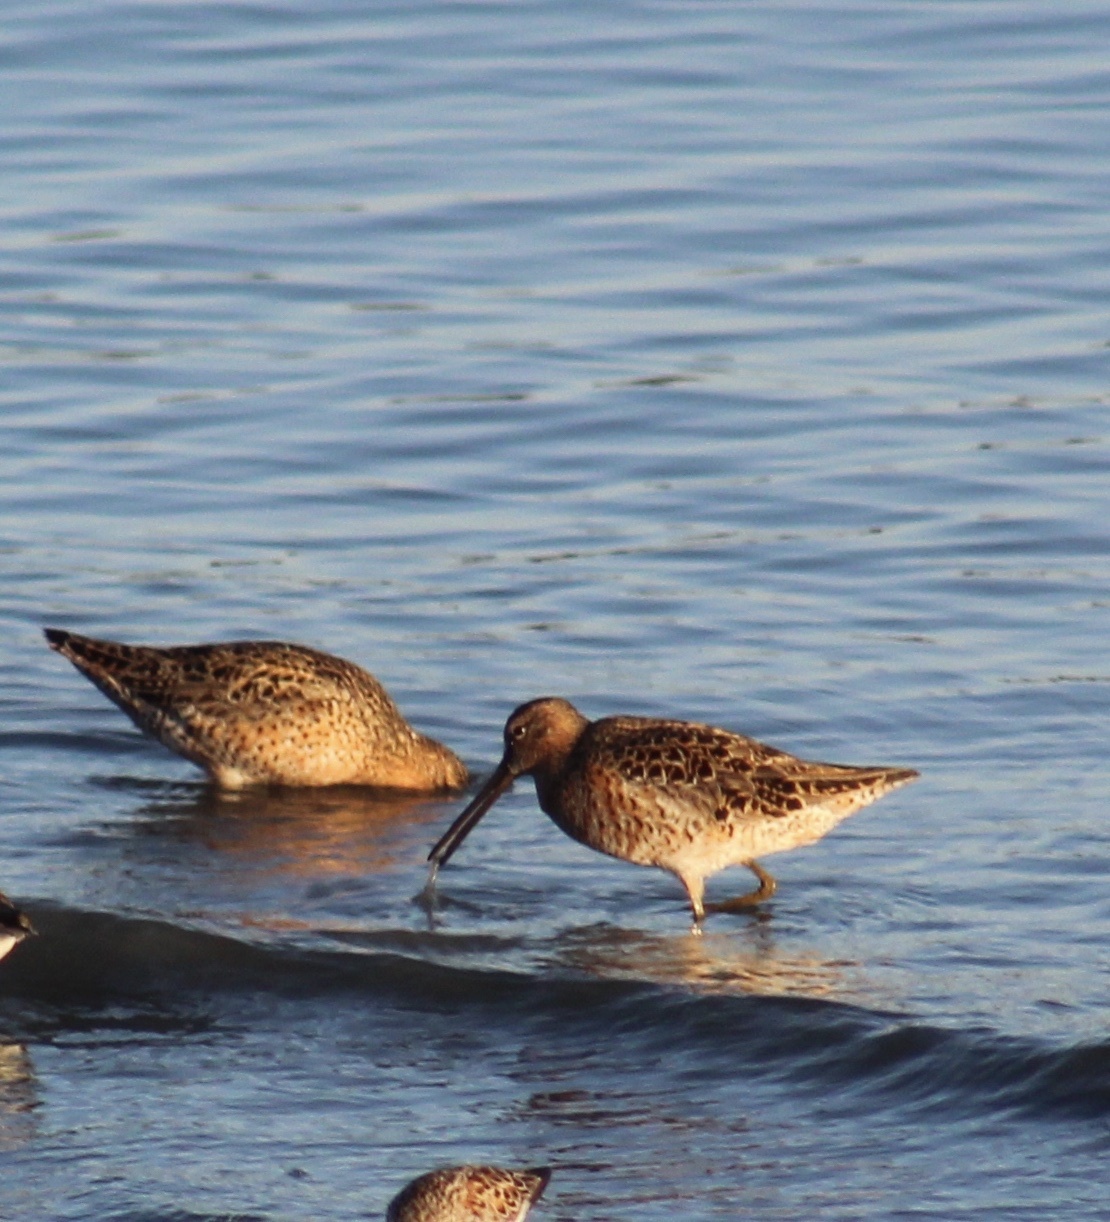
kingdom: Animalia
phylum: Chordata
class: Aves
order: Charadriiformes
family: Scolopacidae
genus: Limnodromus
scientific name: Limnodromus scolopaceus
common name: Long-billed dowitcher
